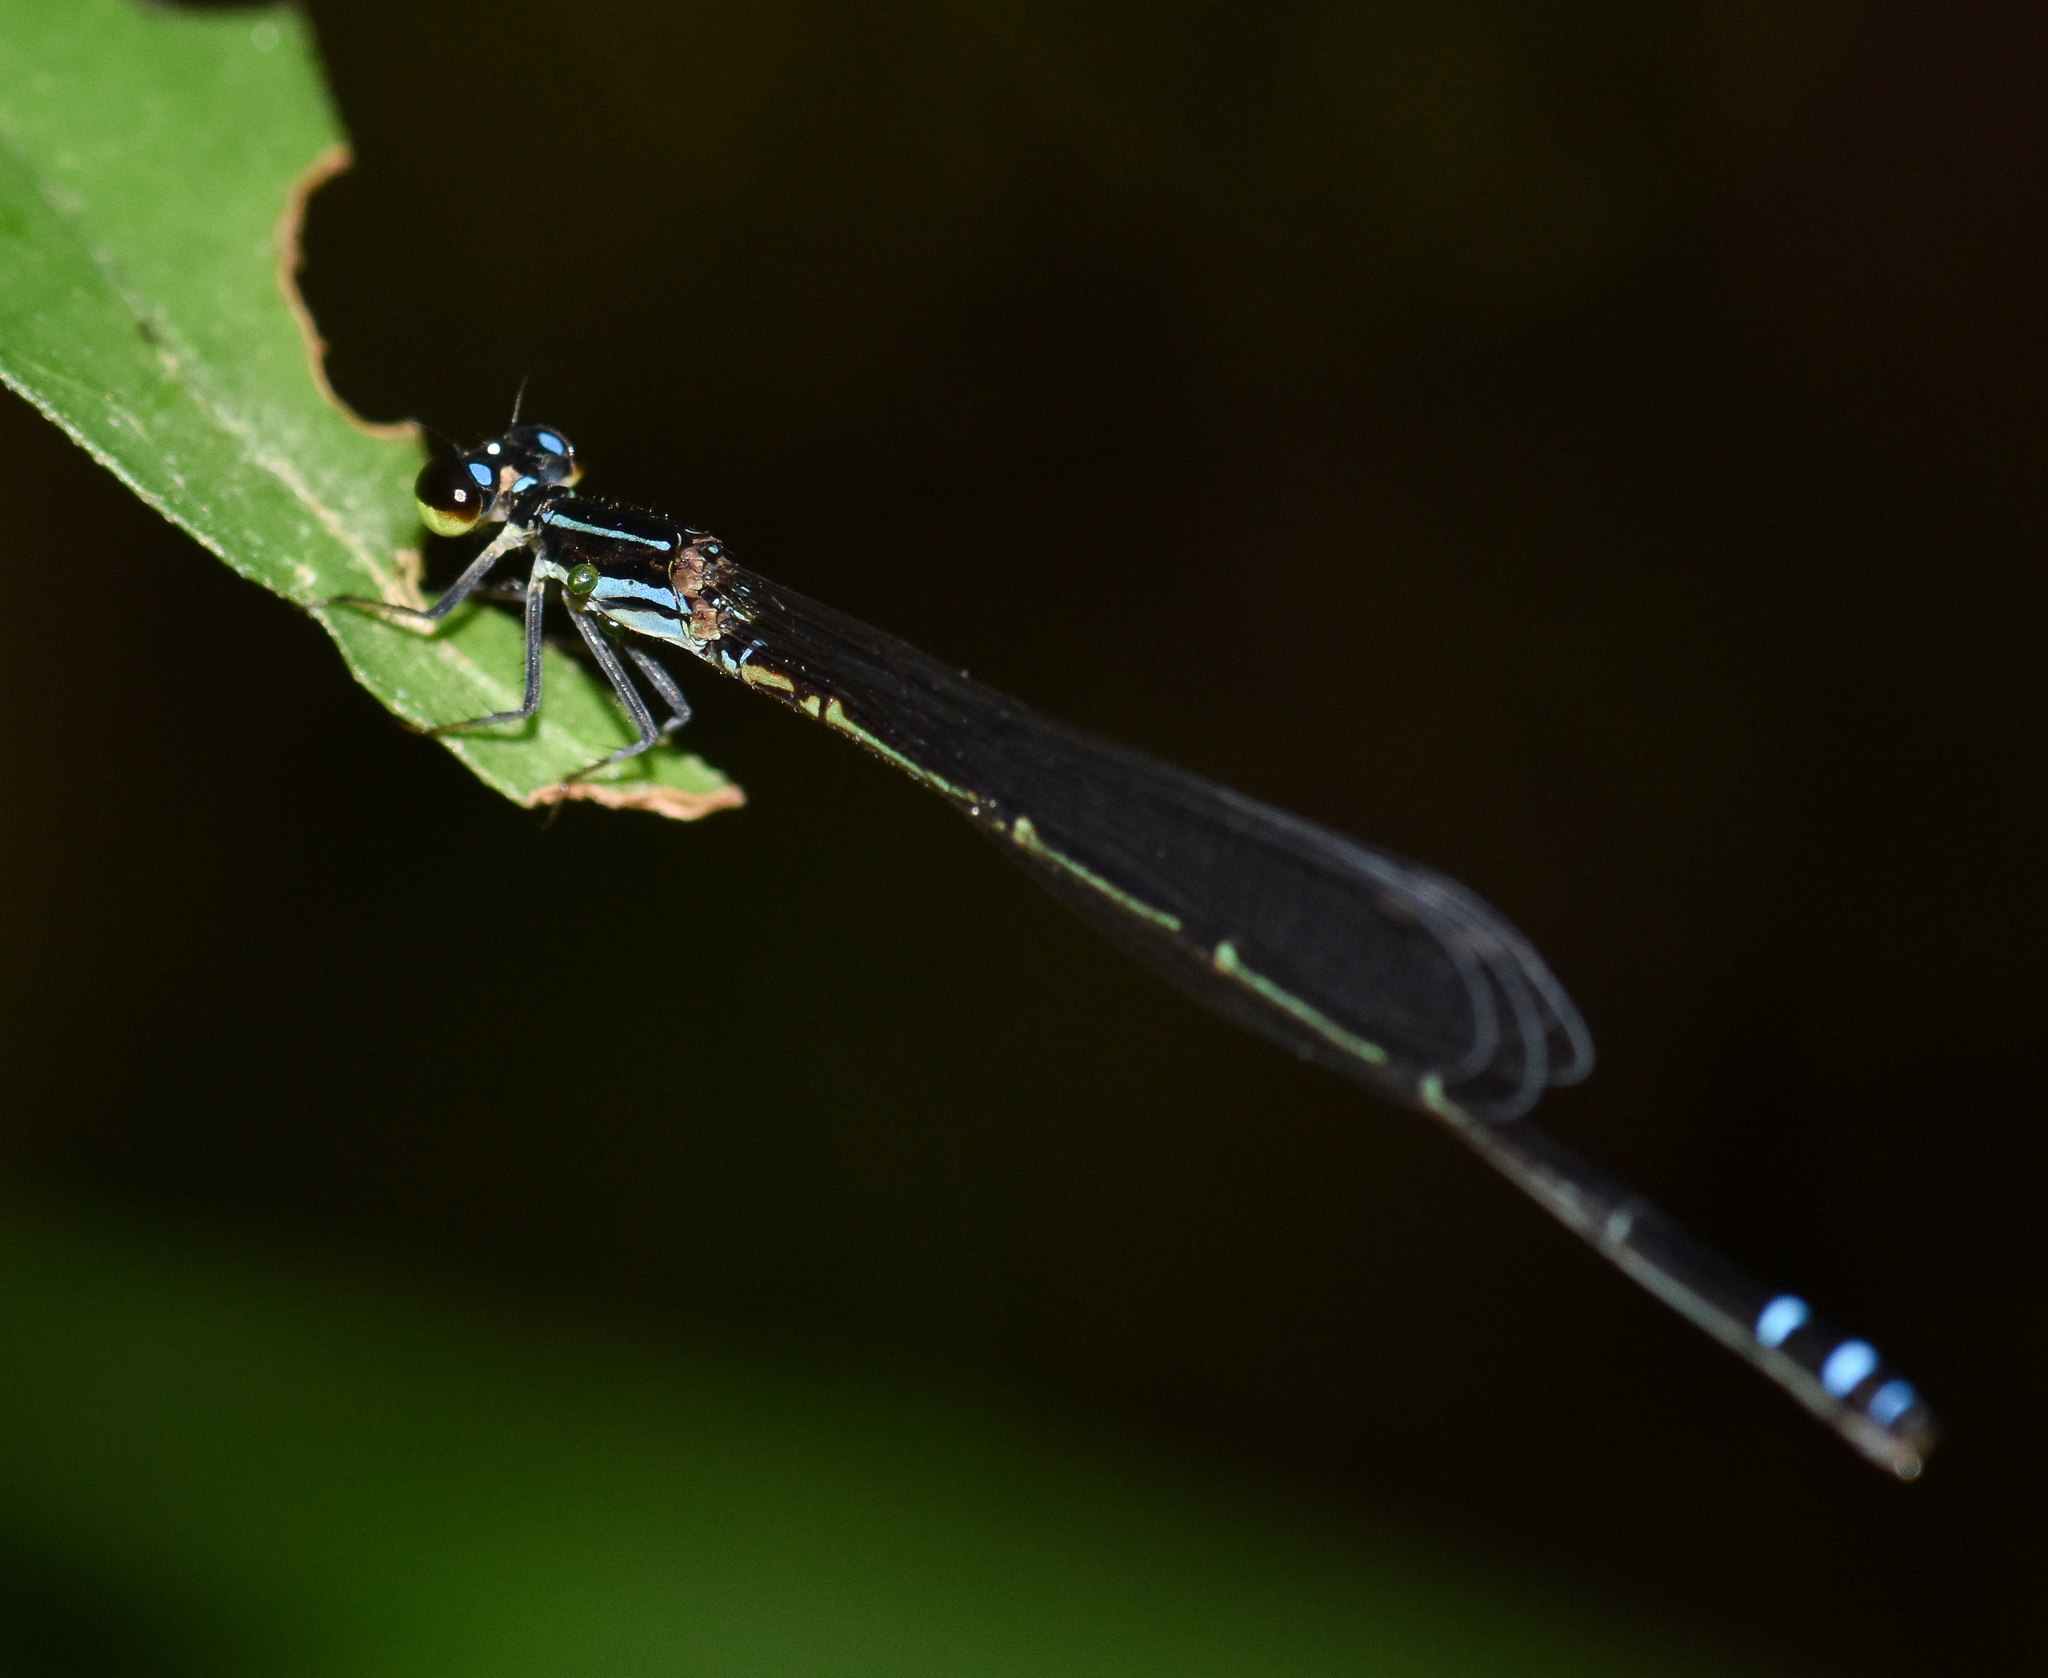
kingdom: Animalia
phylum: Arthropoda
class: Insecta
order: Odonata
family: Coenagrionidae
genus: Mortonagrion
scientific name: Mortonagrion aborense
